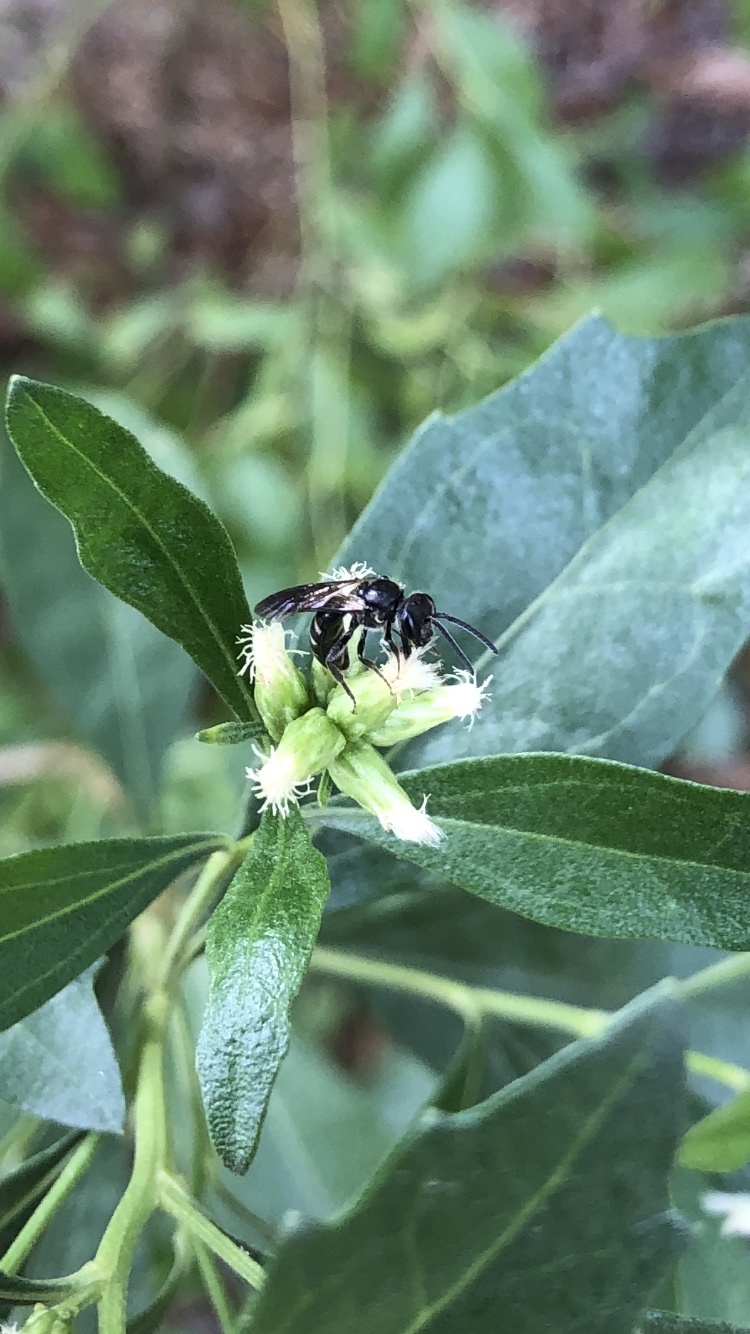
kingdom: Animalia
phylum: Arthropoda
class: Insecta
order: Hymenoptera
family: Halictidae
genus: Lasioglossum
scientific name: Lasioglossum fuscipenne
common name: Brown-winged sweat bee
